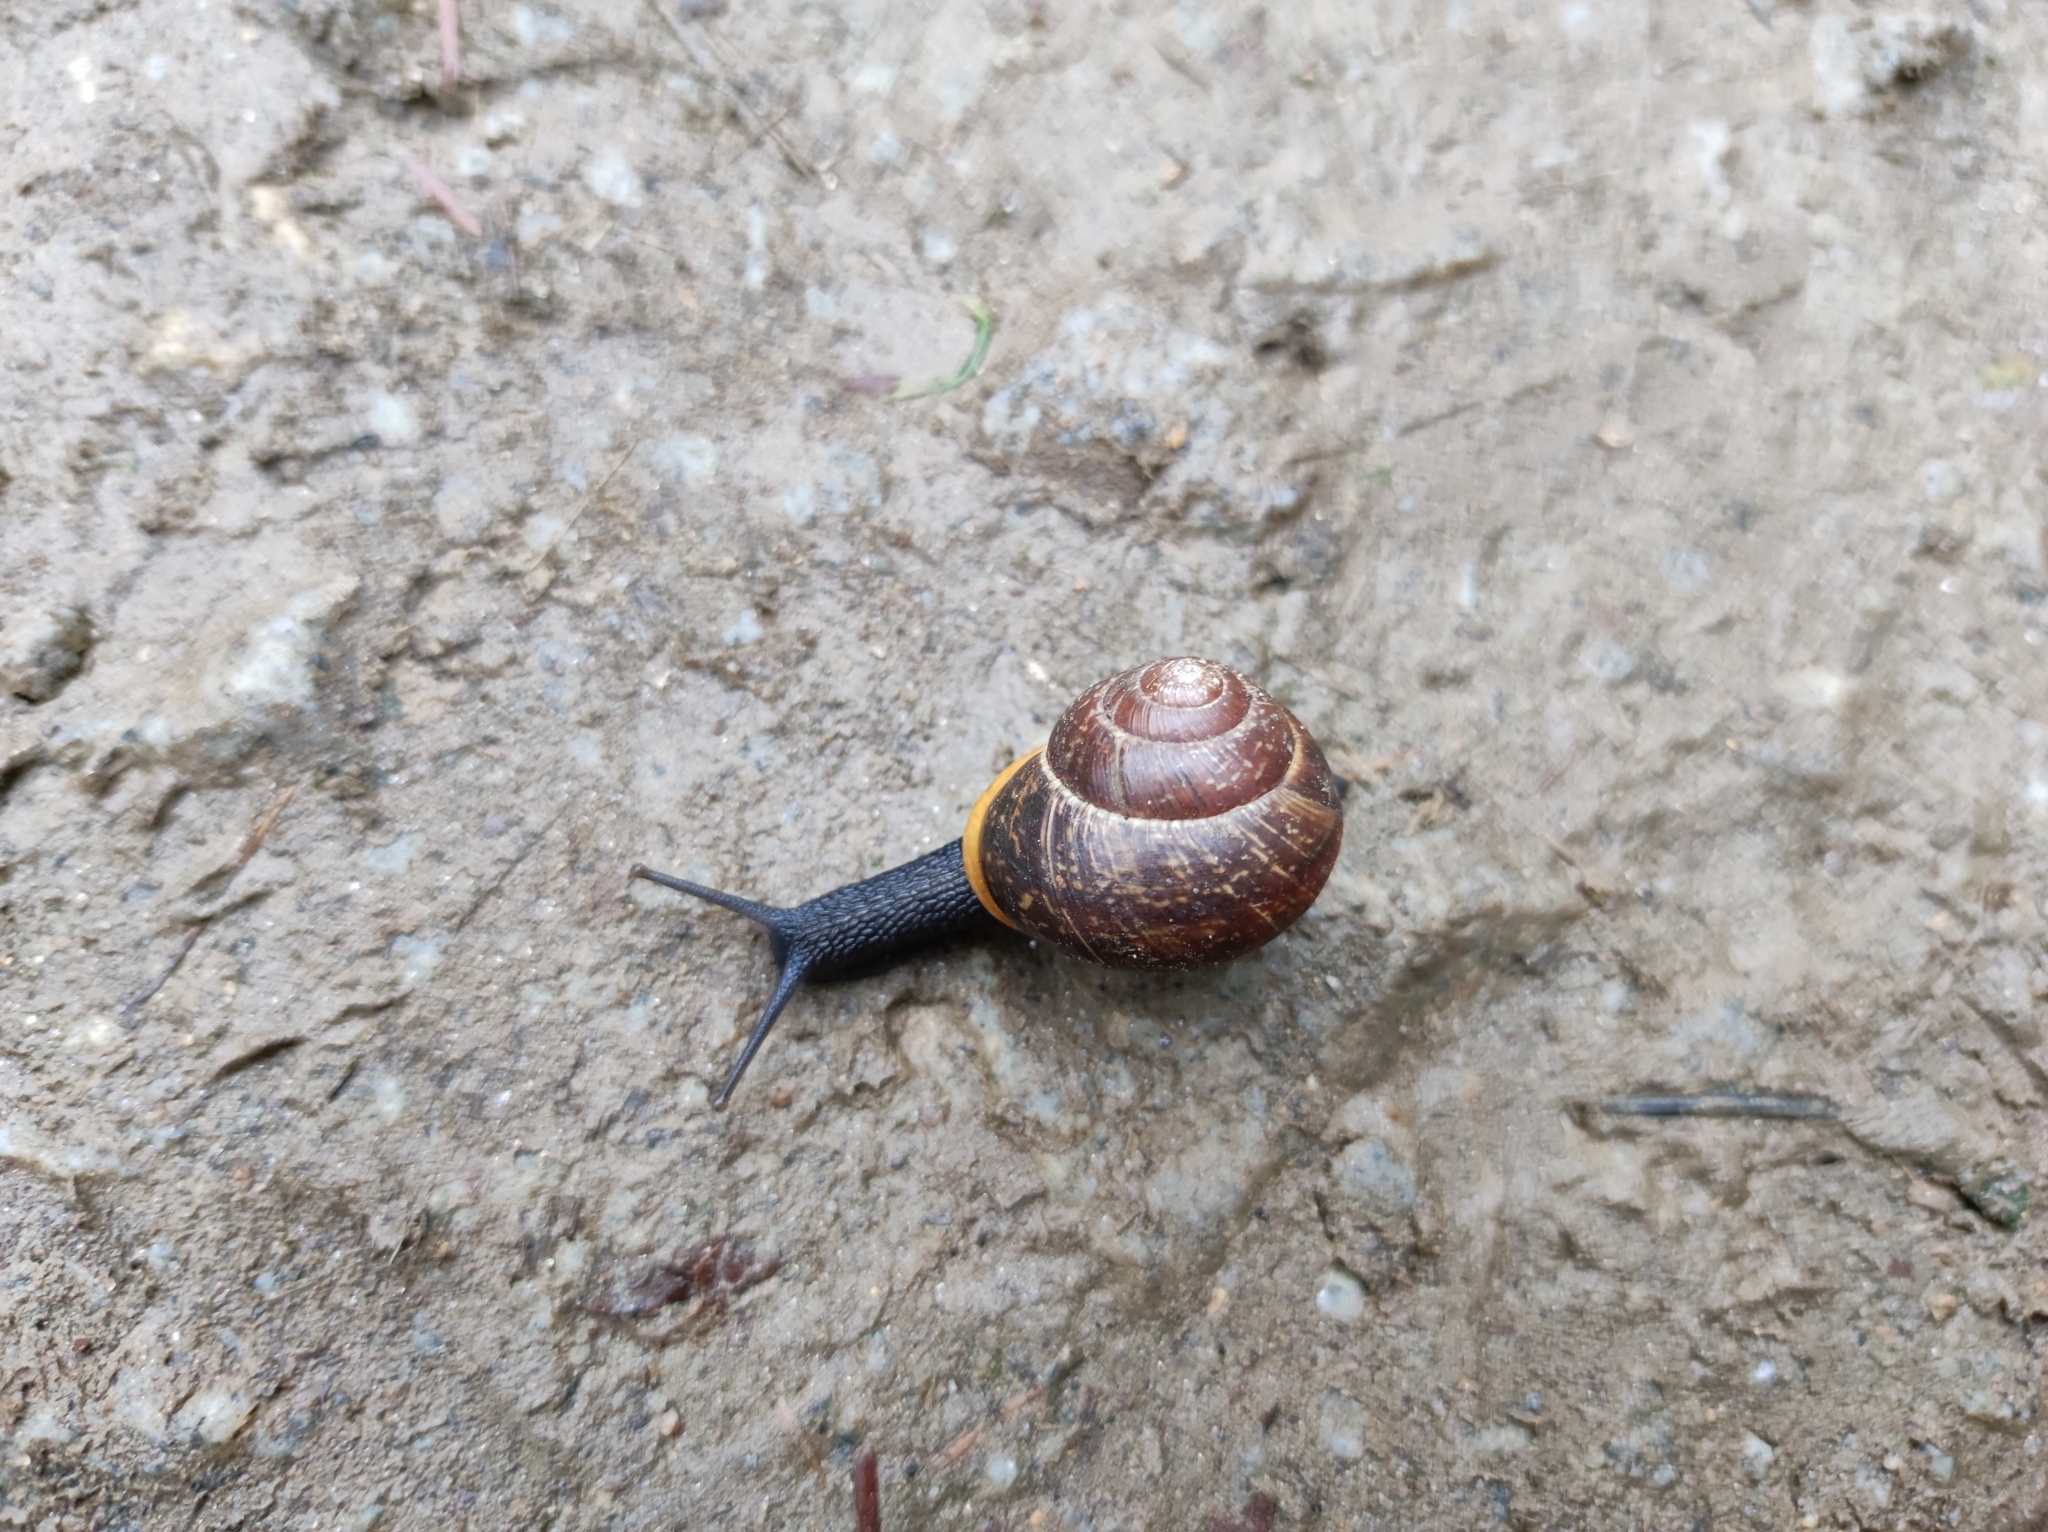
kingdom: Animalia
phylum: Mollusca
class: Gastropoda
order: Stylommatophora
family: Helicidae
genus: Arianta
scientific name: Arianta arbustorum
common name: Copse snail
